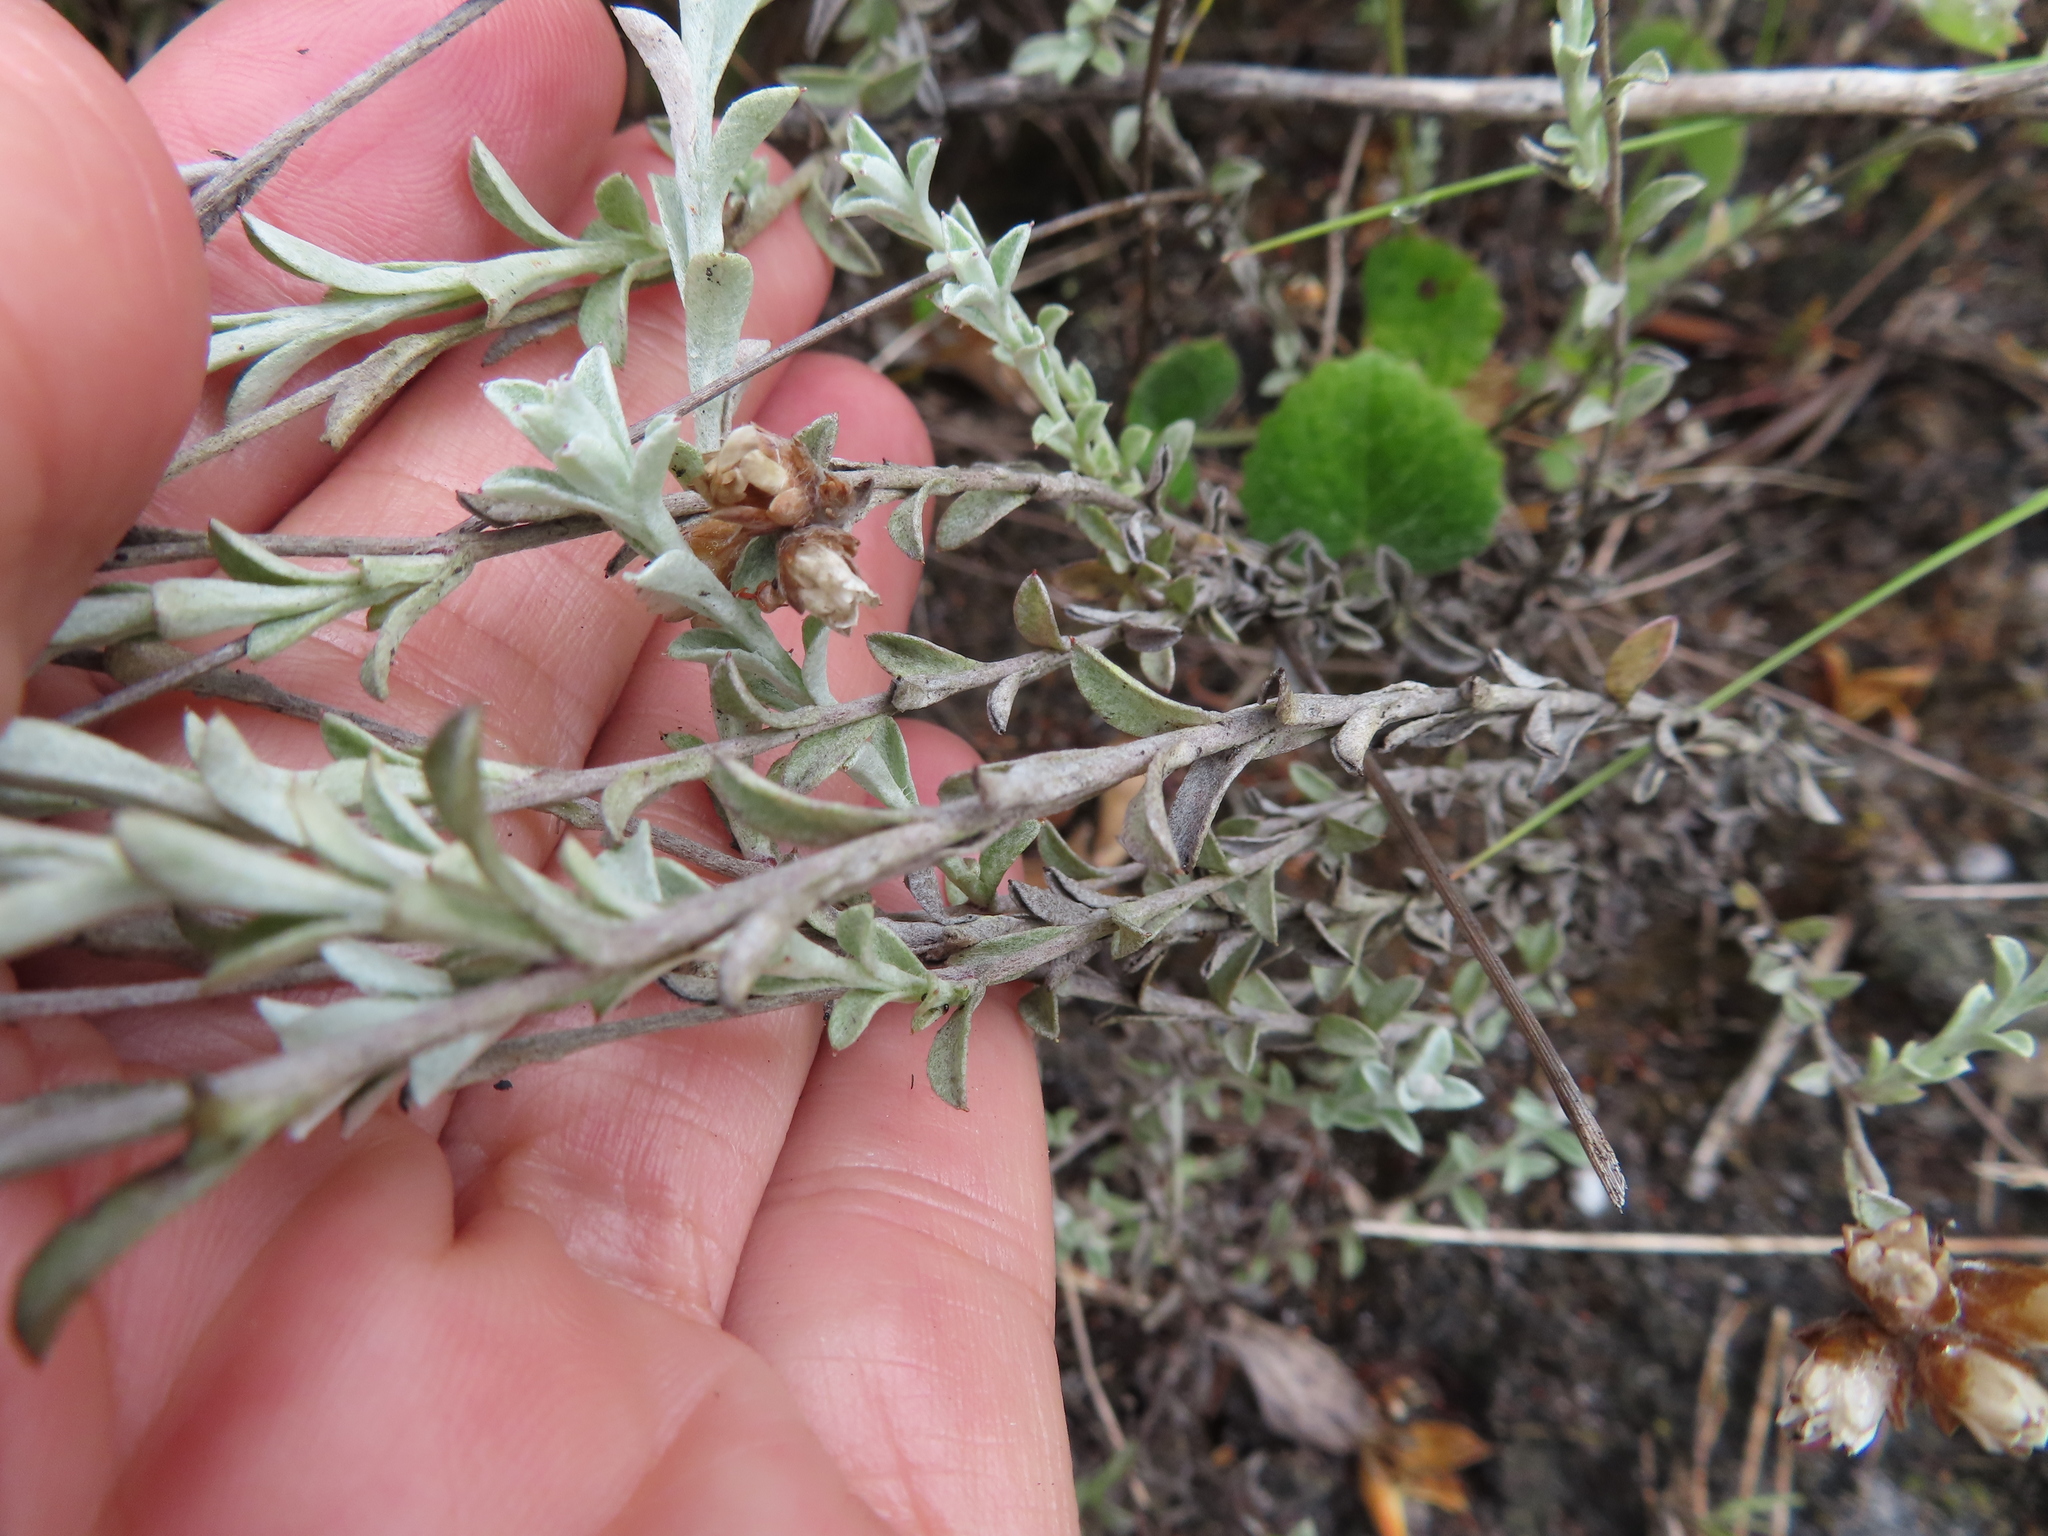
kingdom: Plantae
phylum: Tracheophyta
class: Magnoliopsida
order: Asterales
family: Asteraceae
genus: Langebergia
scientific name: Langebergia canescens
